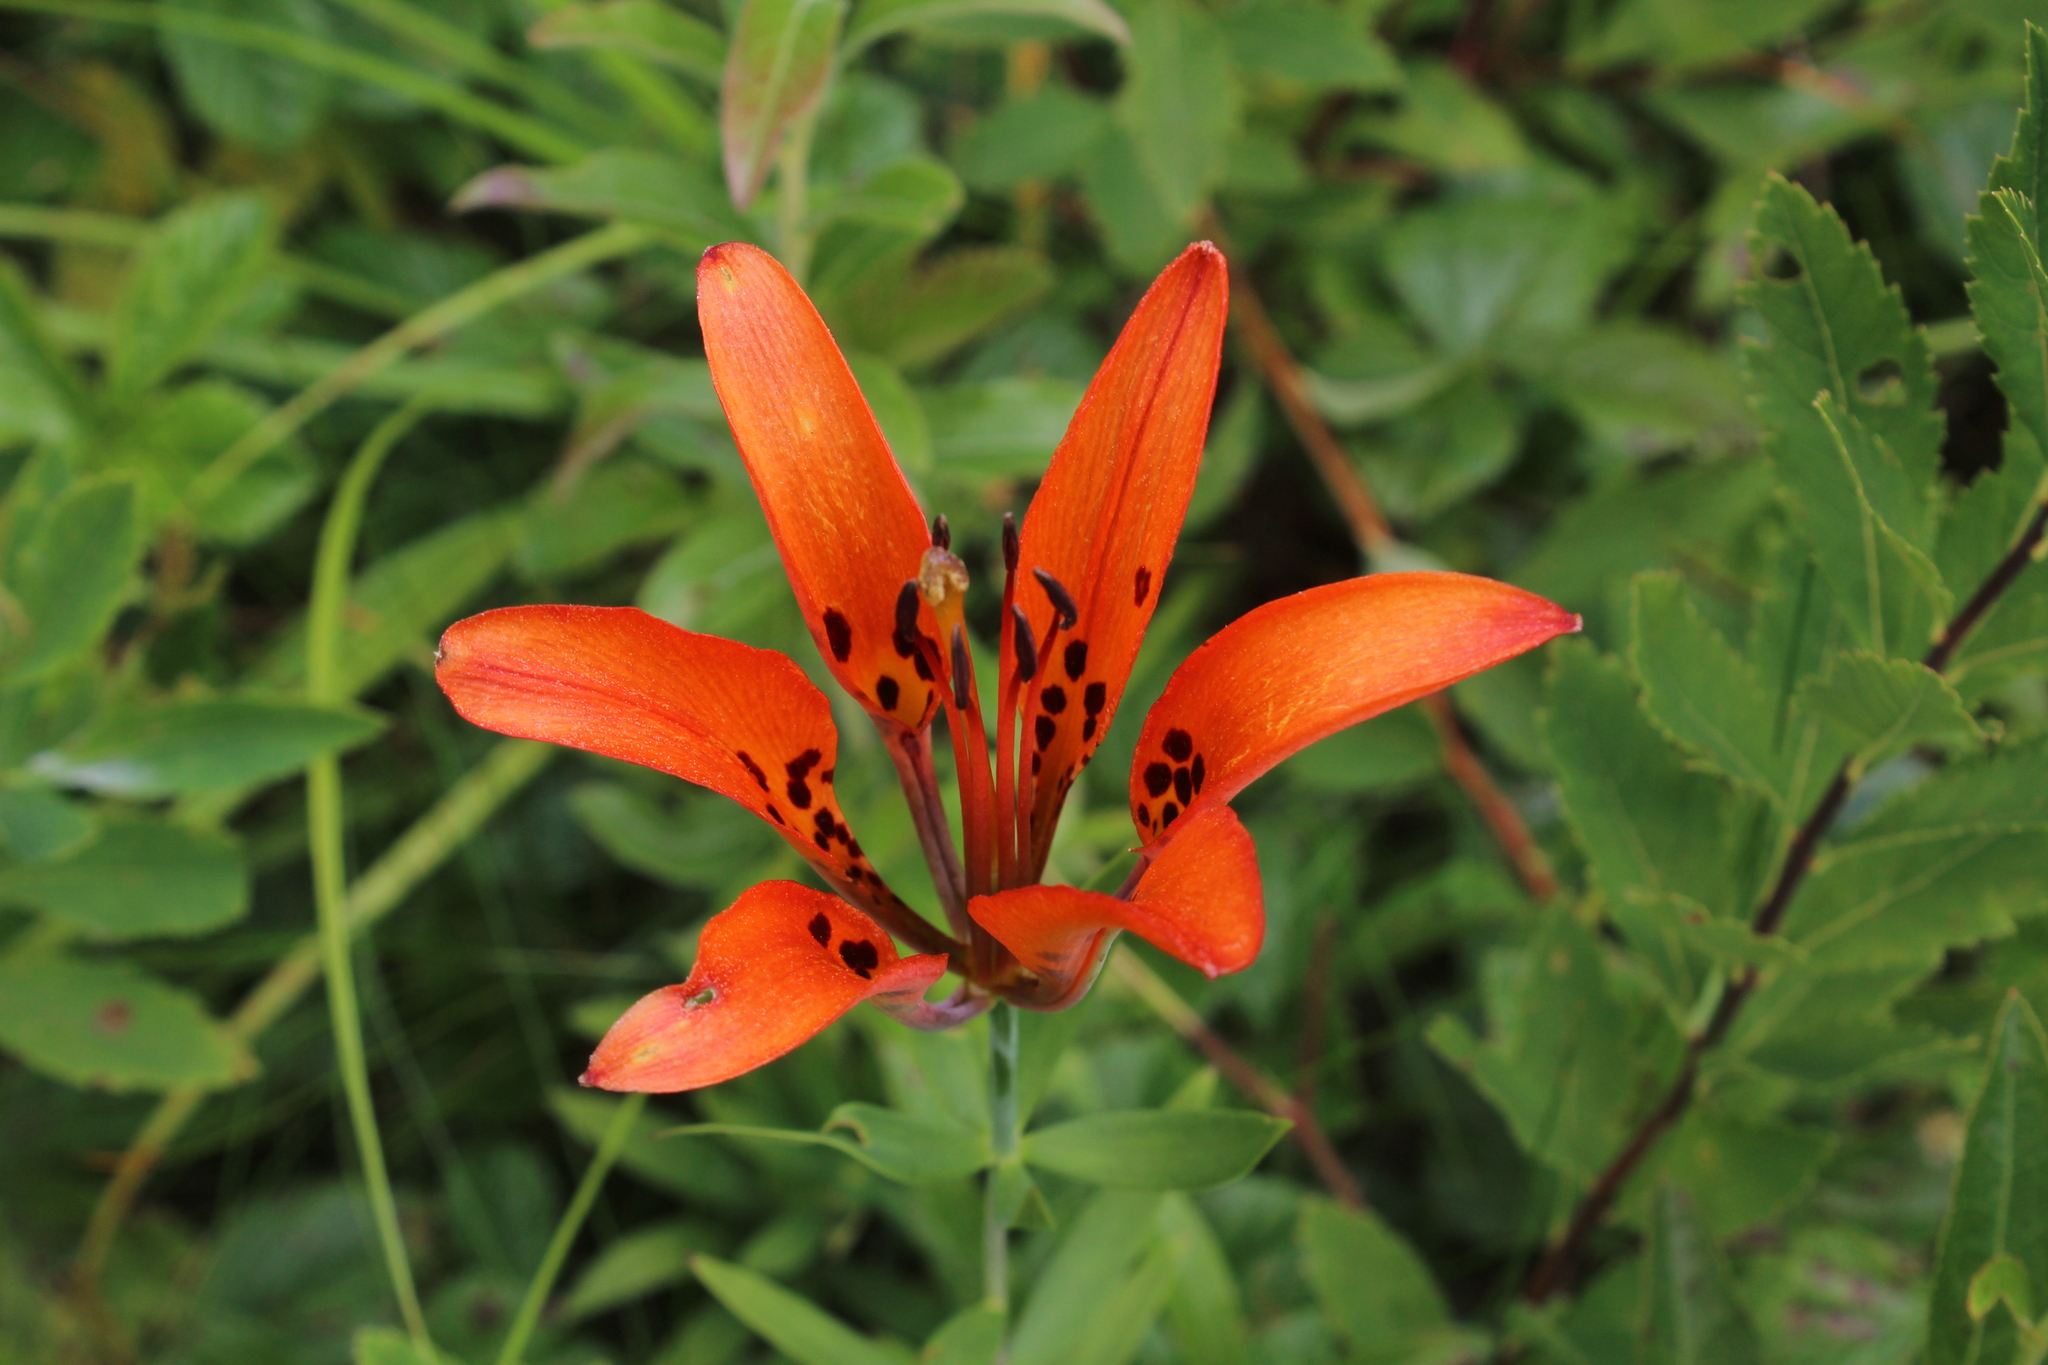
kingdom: Plantae
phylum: Tracheophyta
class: Liliopsida
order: Liliales
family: Liliaceae
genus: Lilium
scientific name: Lilium philadelphicum
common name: Red lily
